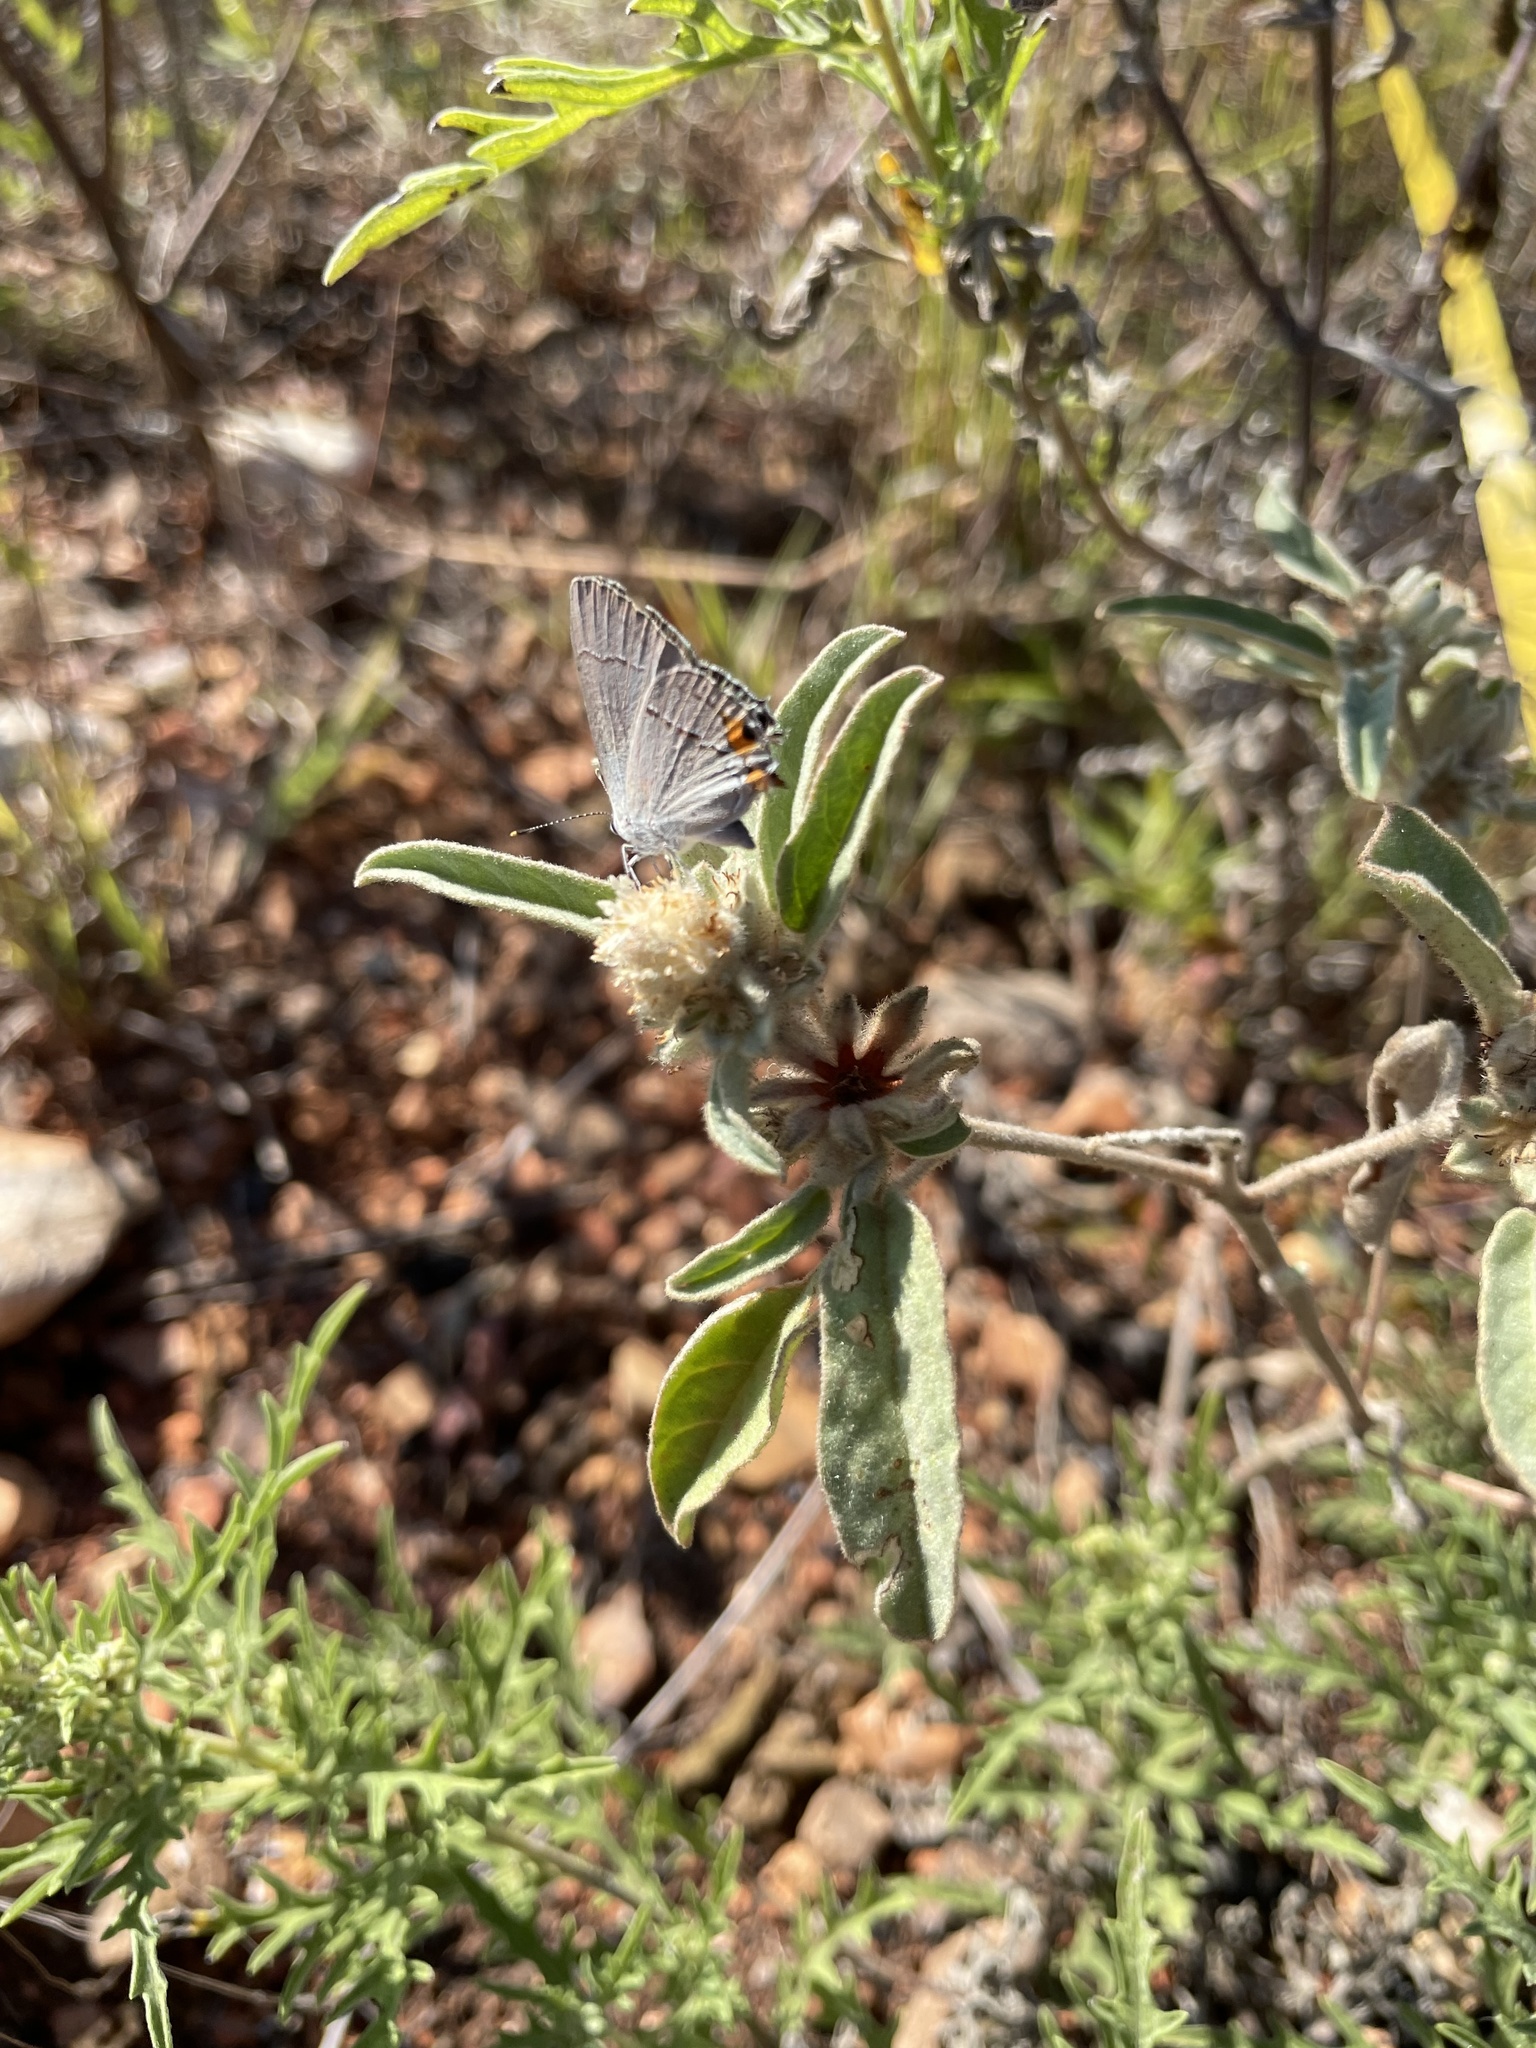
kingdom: Animalia
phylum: Arthropoda
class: Insecta
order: Lepidoptera
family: Lycaenidae
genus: Strymon
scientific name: Strymon melinus
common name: Gray hairstreak
